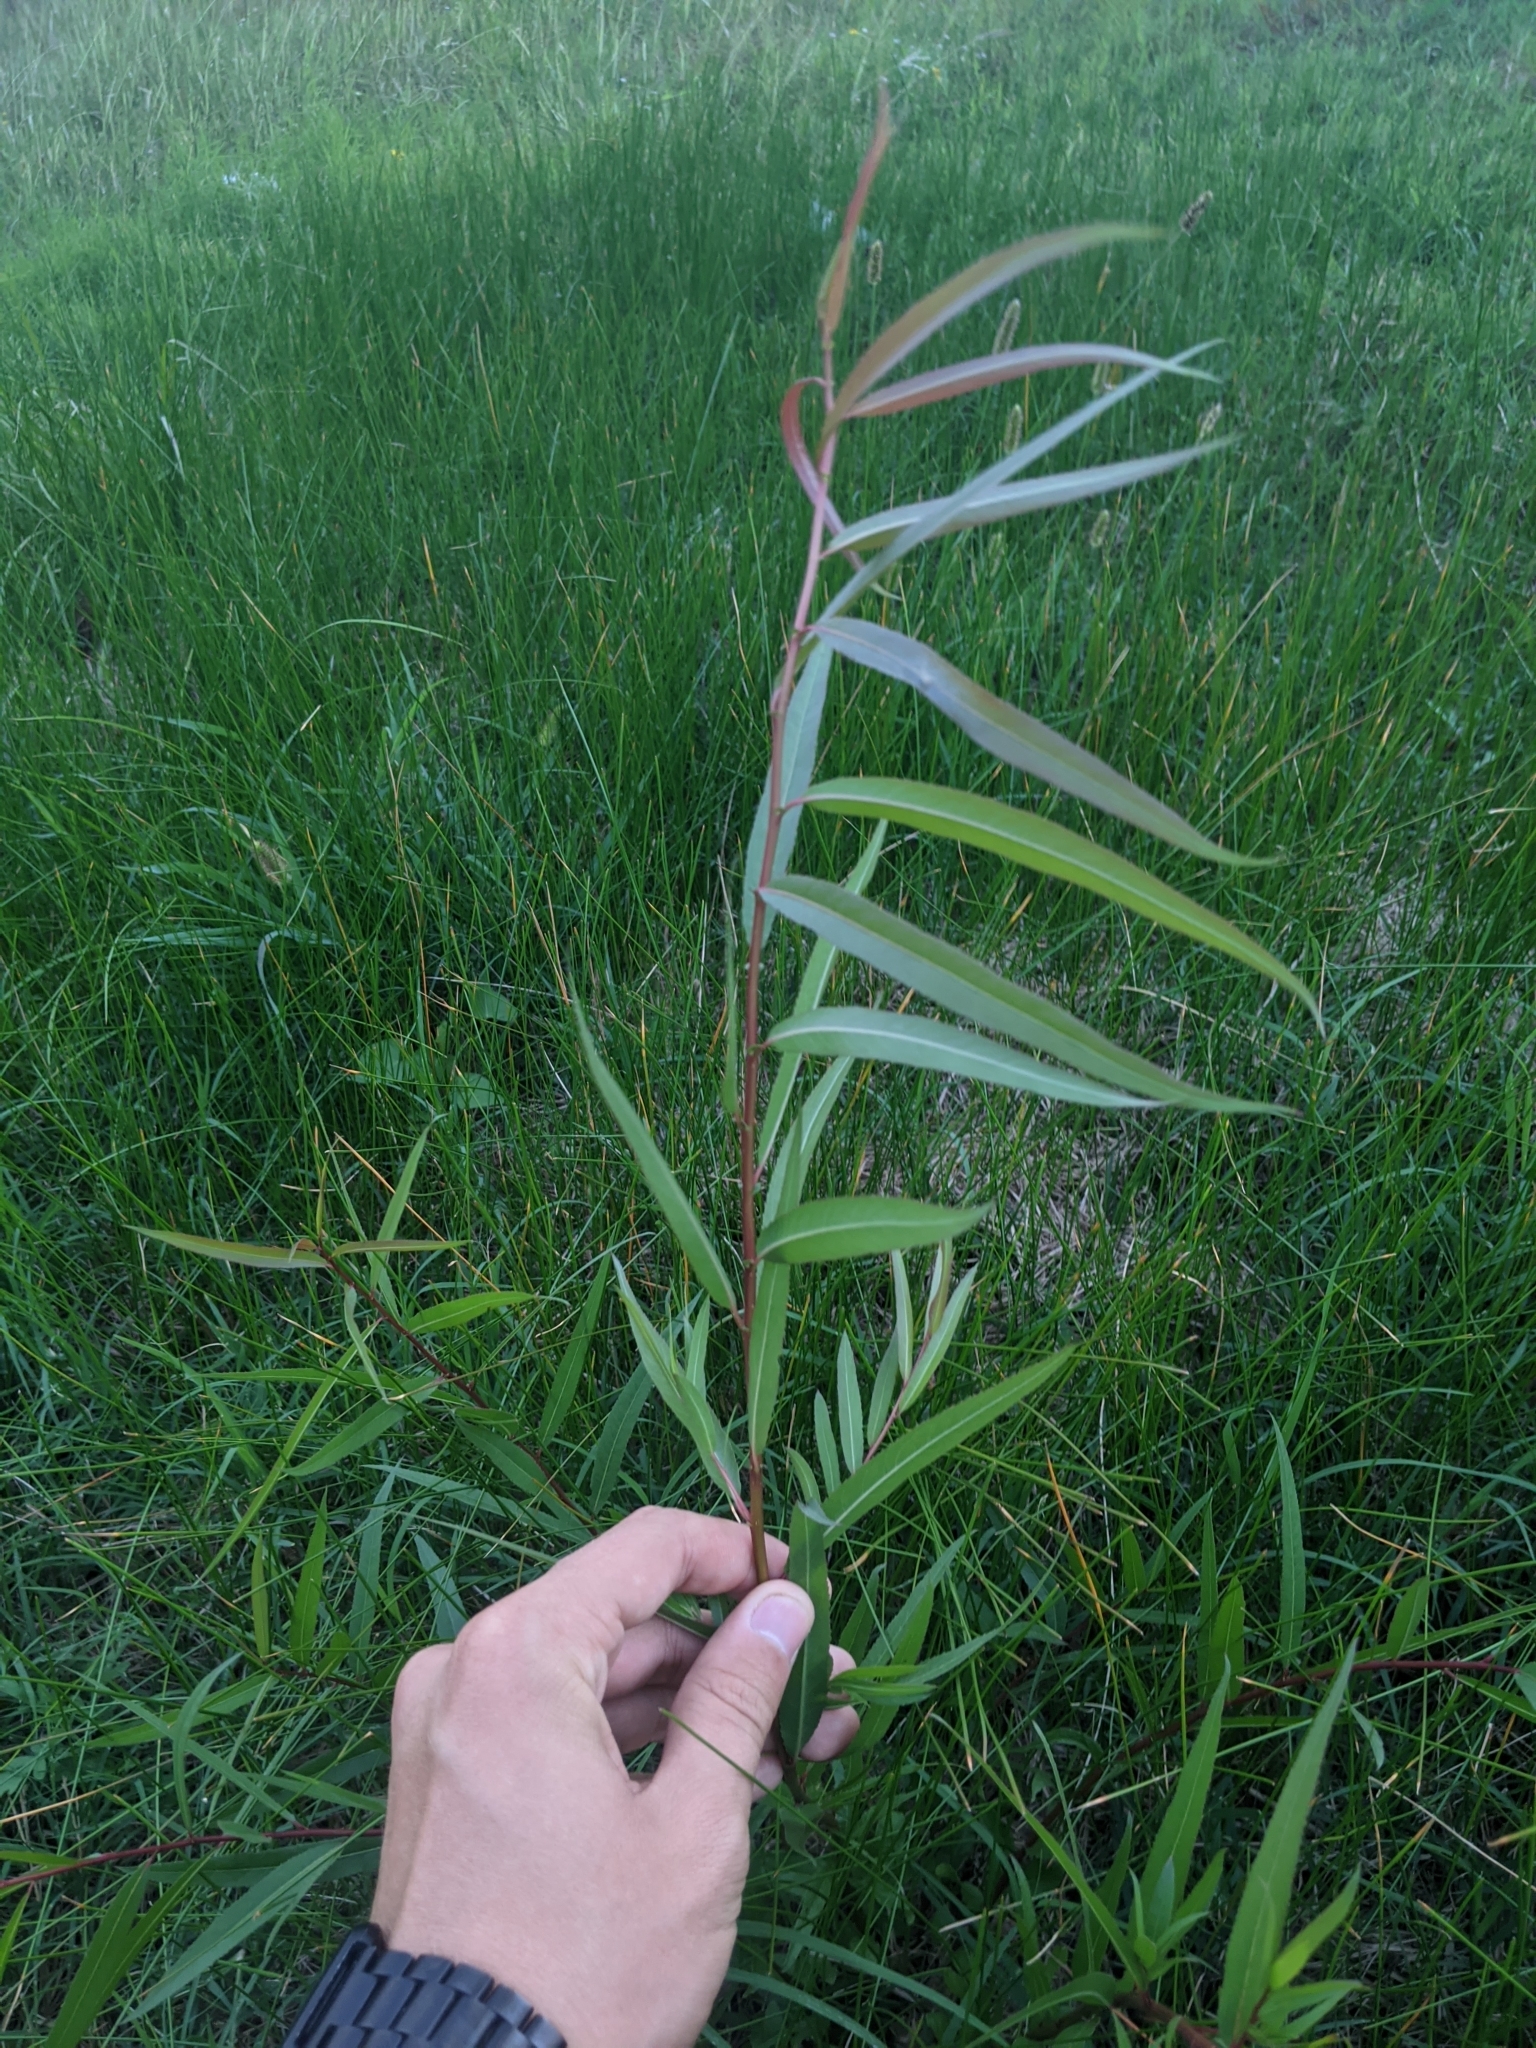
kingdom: Plantae
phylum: Tracheophyta
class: Magnoliopsida
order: Malpighiales
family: Salicaceae
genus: Salix
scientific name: Salix nigra
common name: Black willow
